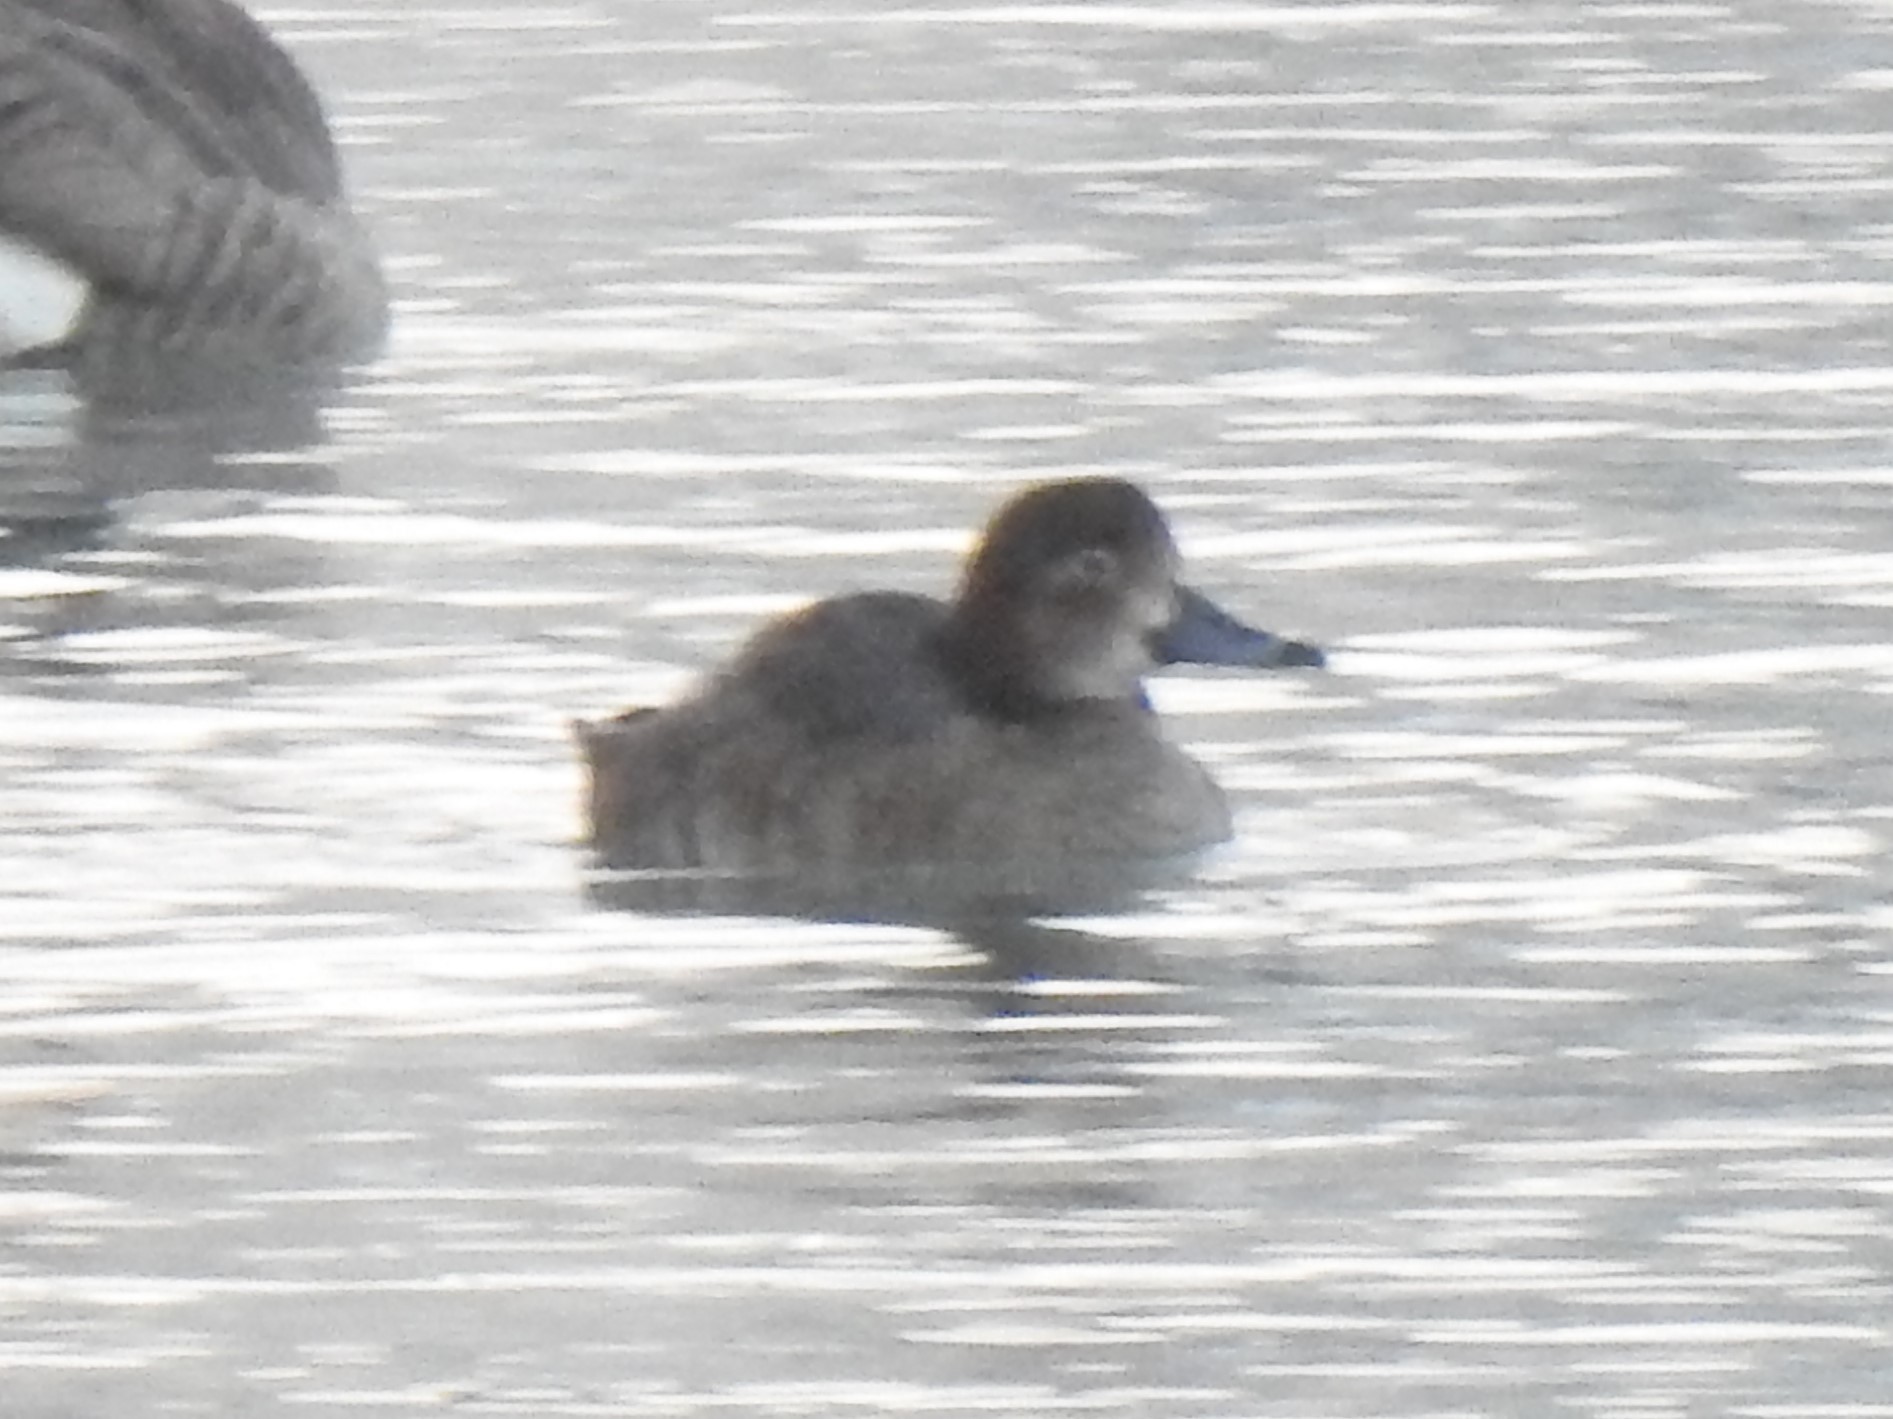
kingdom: Animalia
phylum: Chordata
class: Aves
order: Anseriformes
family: Anatidae
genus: Aythya
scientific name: Aythya americana
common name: Redhead
